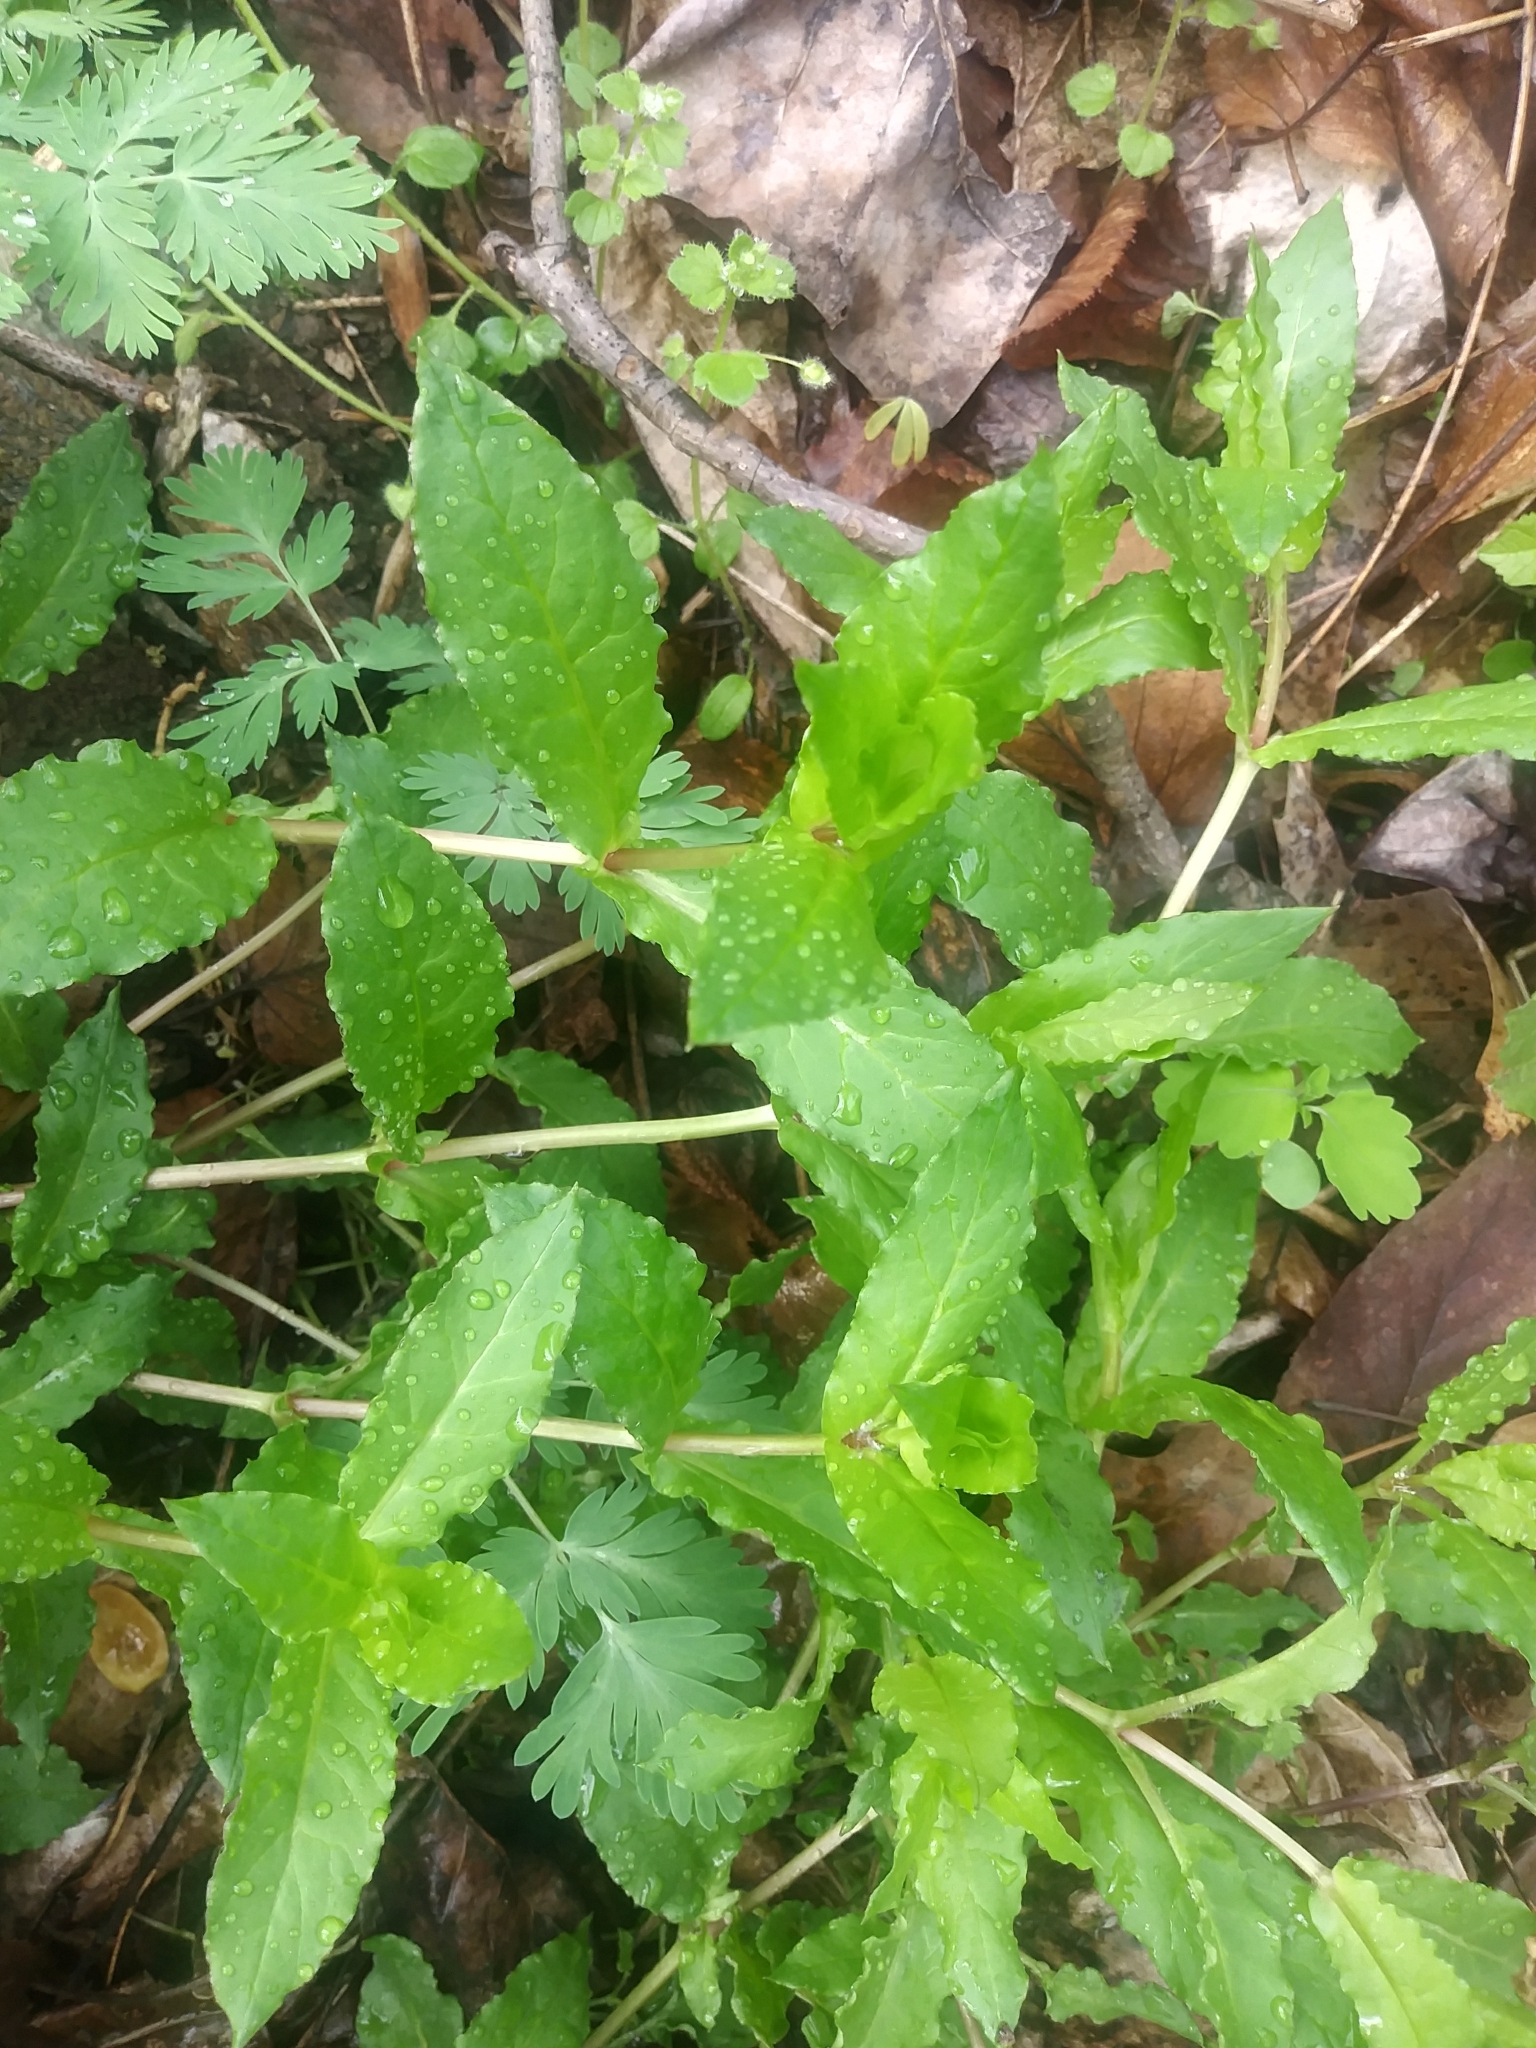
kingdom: Plantae
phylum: Tracheophyta
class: Magnoliopsida
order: Caryophyllales
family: Caryophyllaceae
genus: Stellaria
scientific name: Stellaria aquatica
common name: Water chickweed
